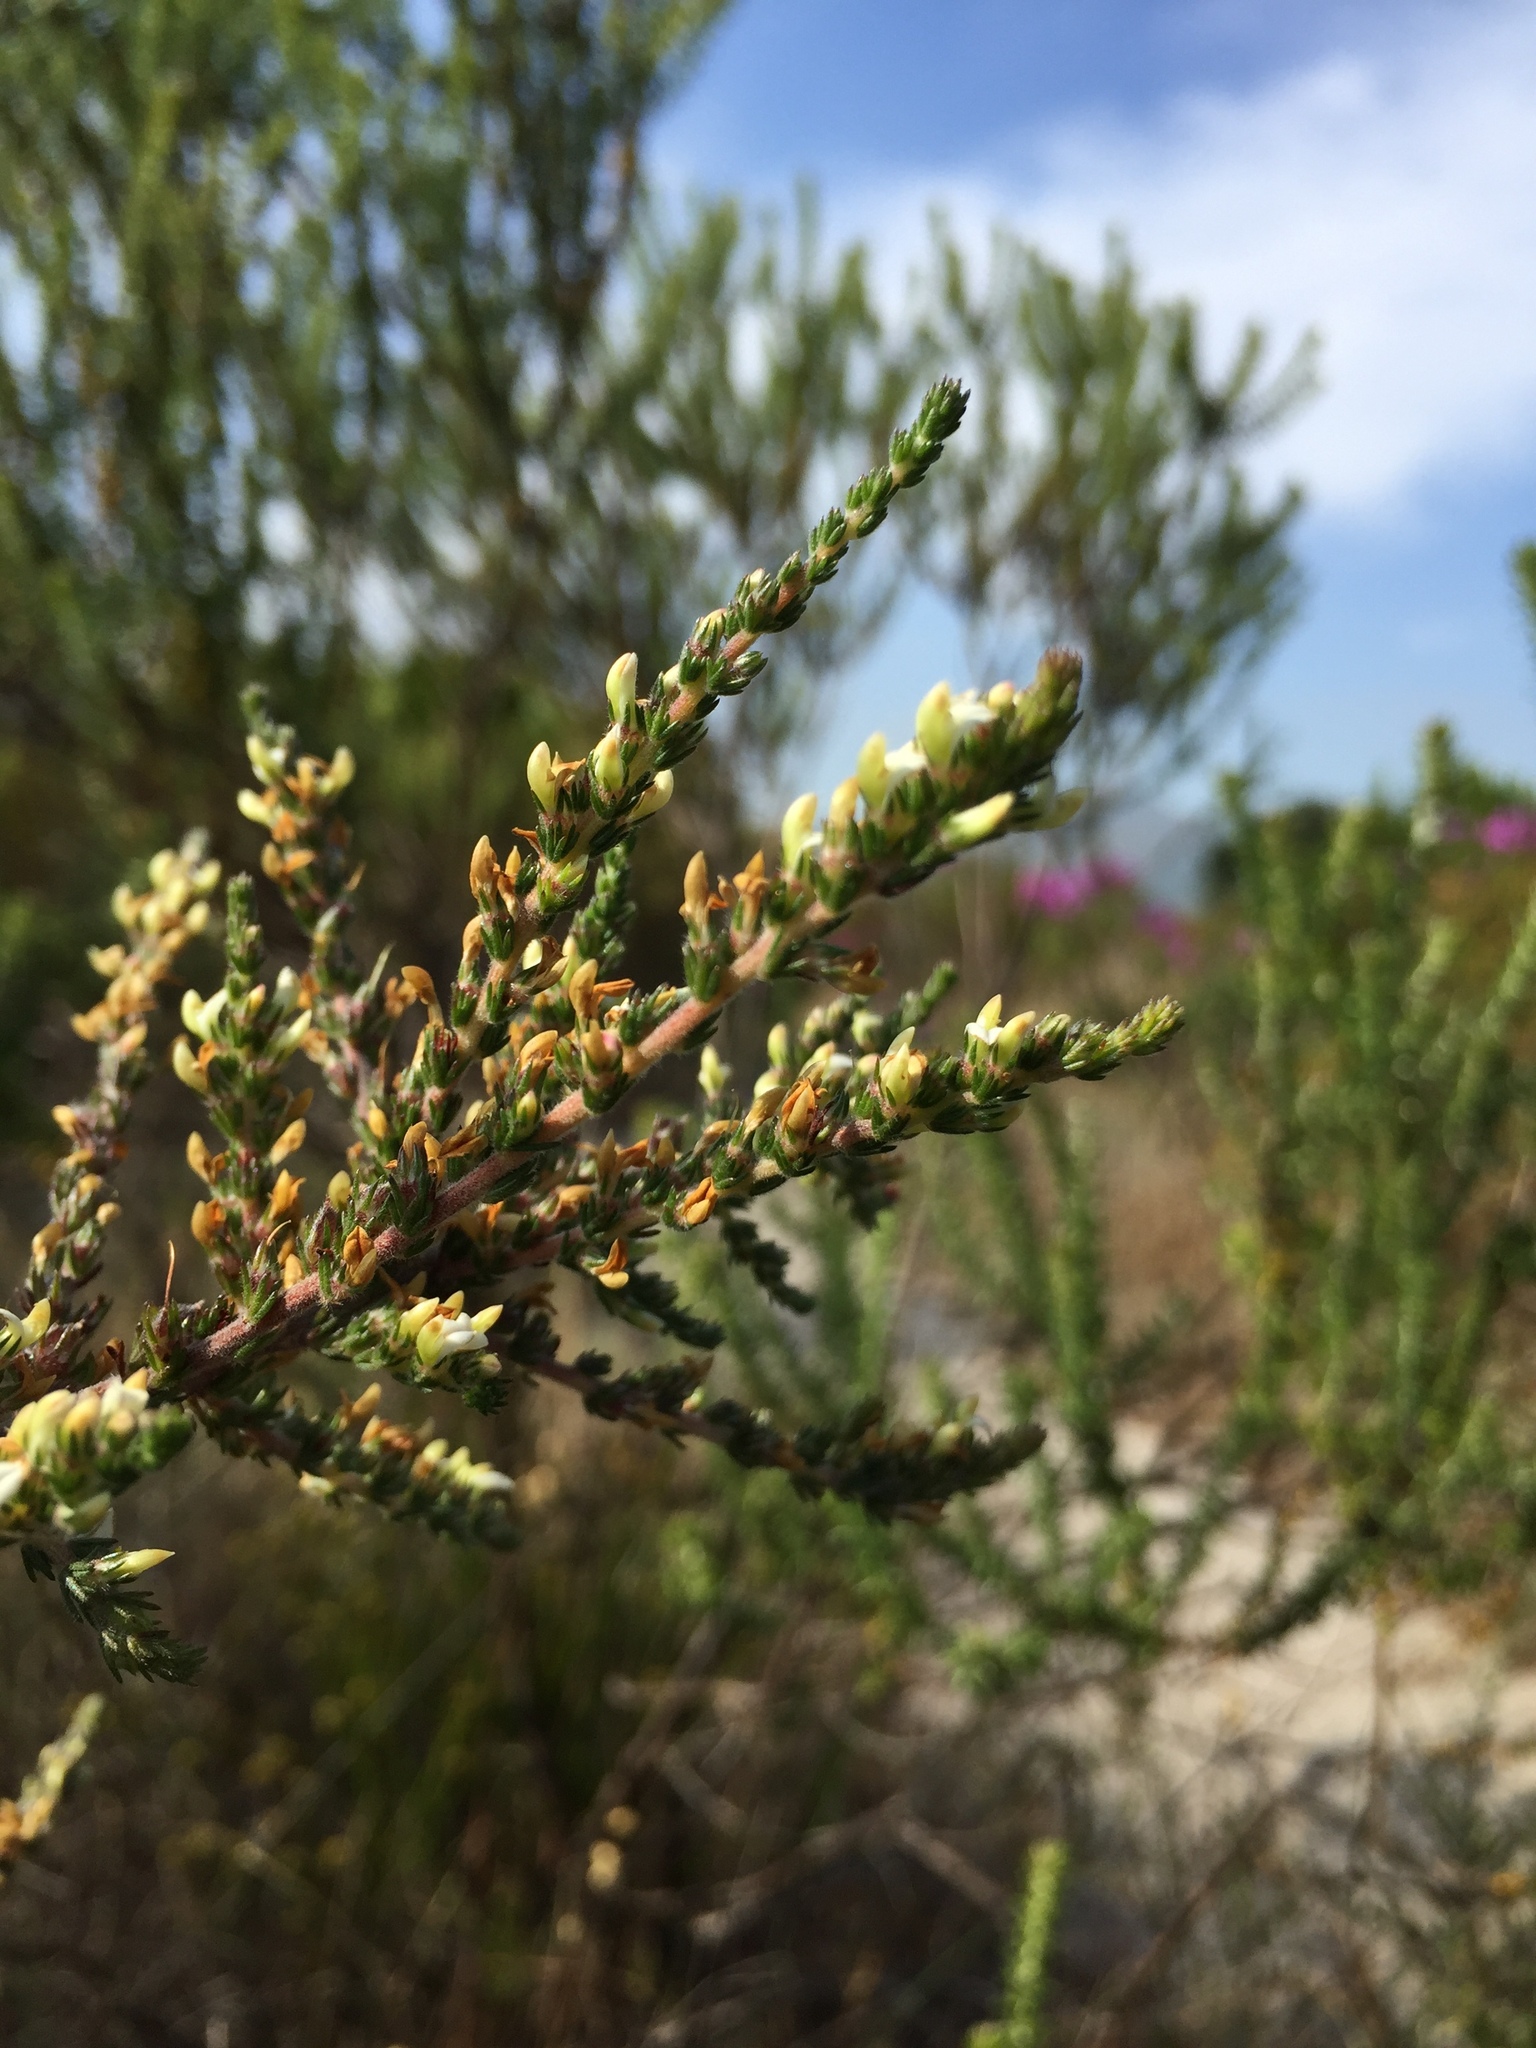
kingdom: Plantae
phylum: Tracheophyta
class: Magnoliopsida
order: Fabales
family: Fabaceae
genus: Aspalathus
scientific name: Aspalathus hispida
